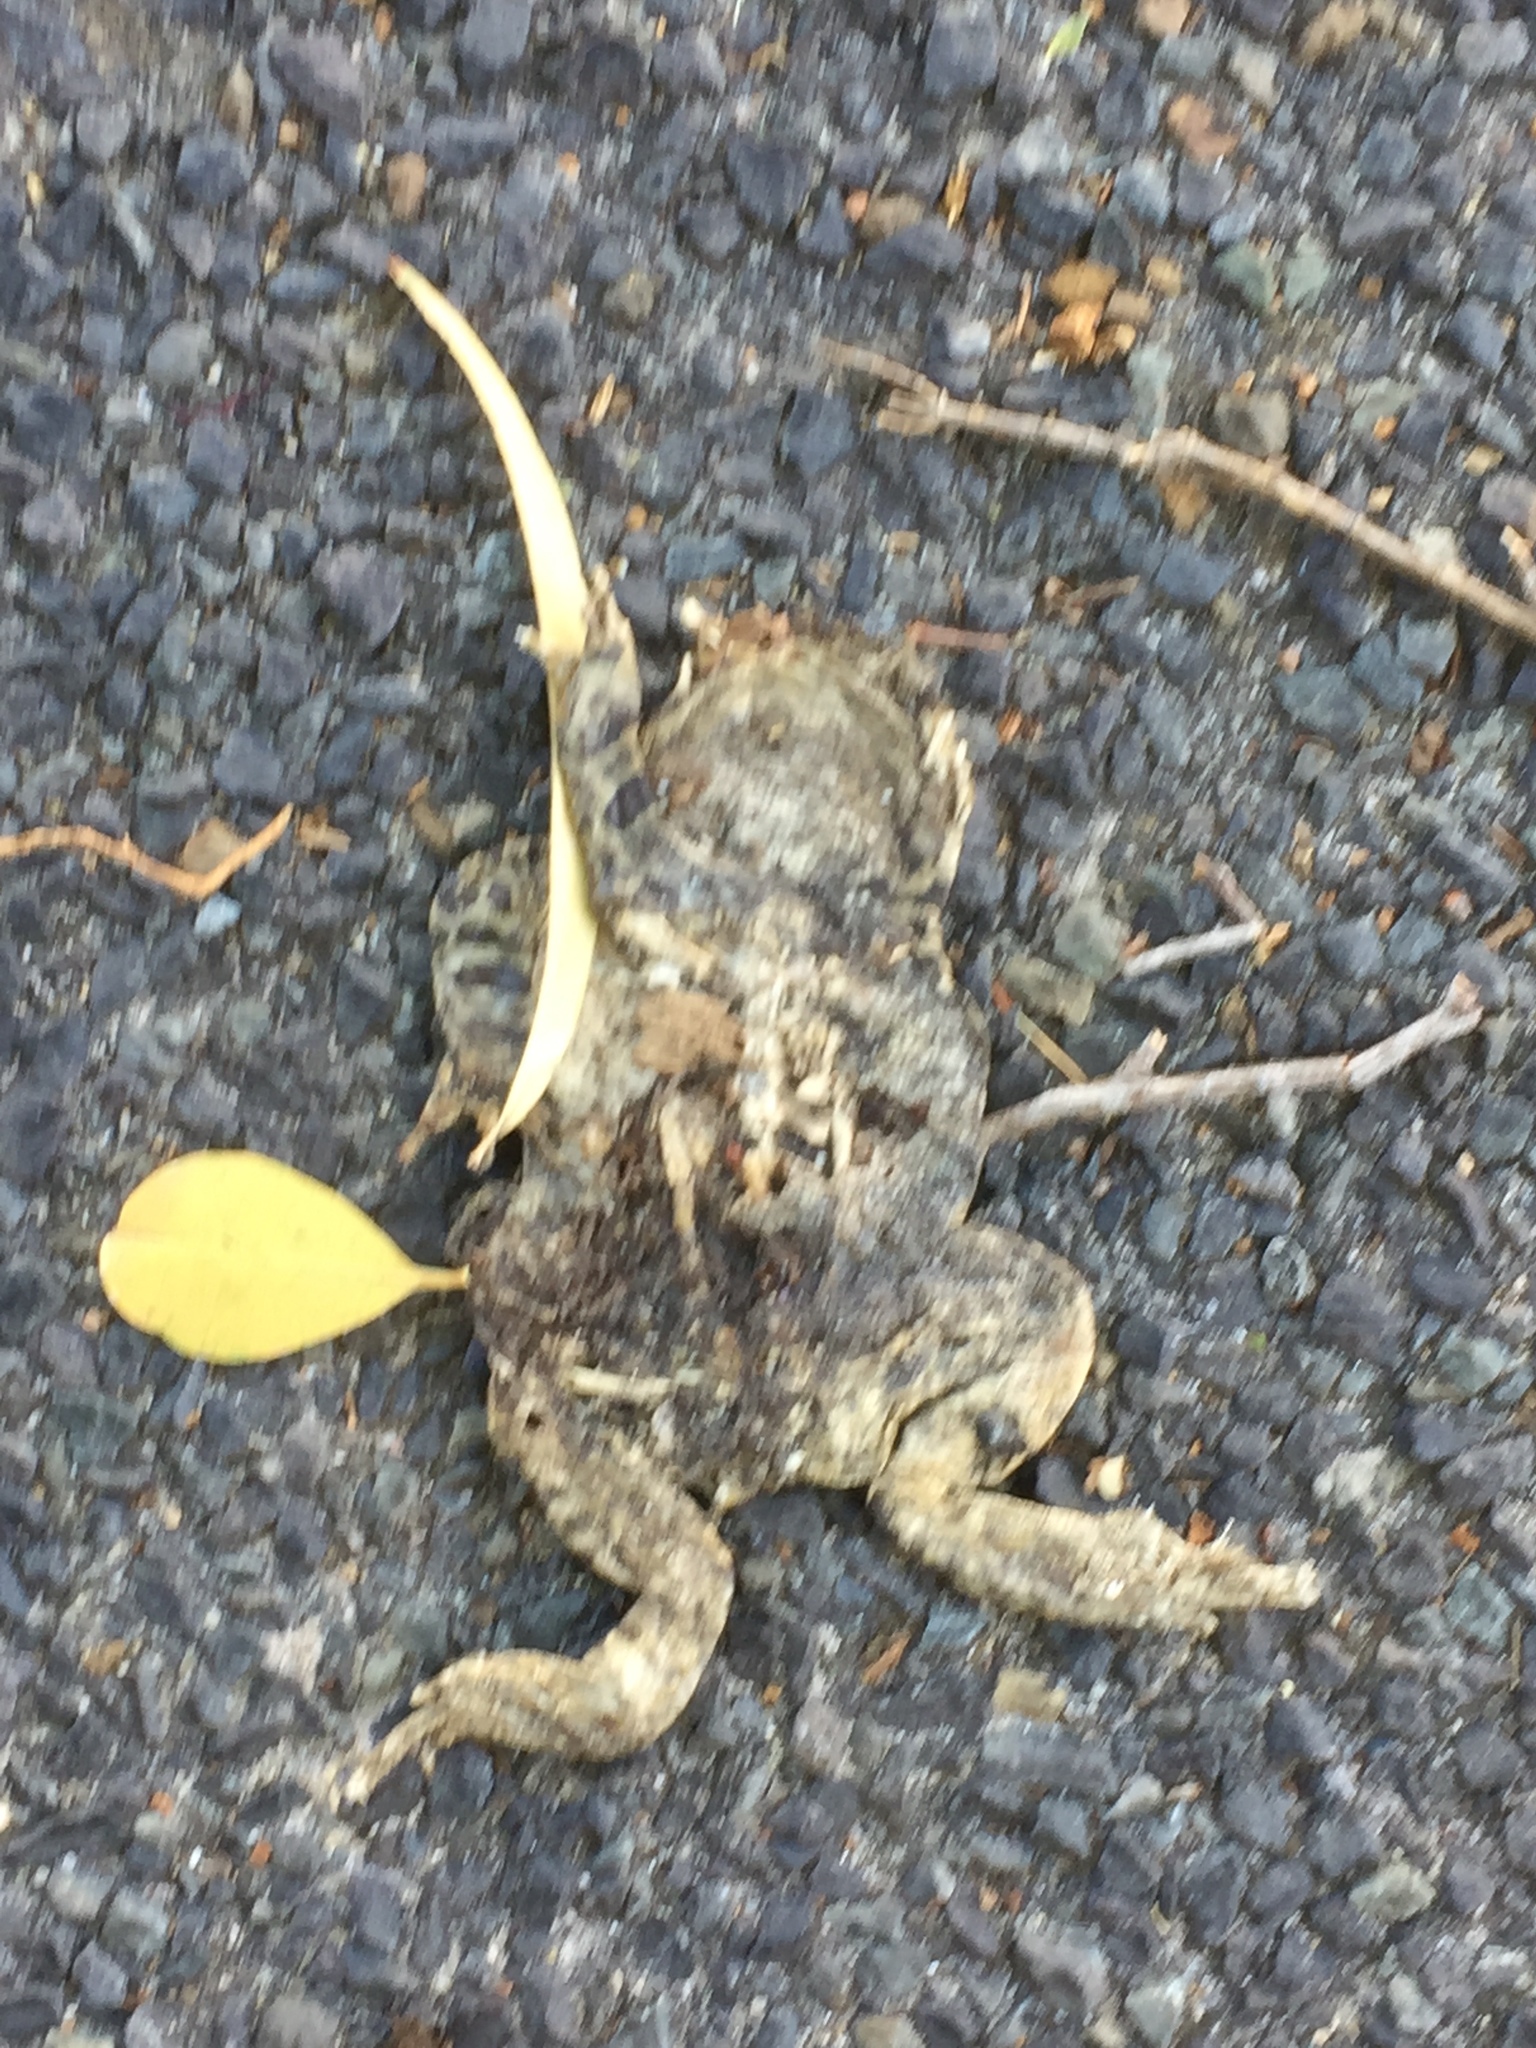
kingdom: Animalia
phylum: Chordata
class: Amphibia
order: Anura
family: Bufonidae
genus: Sclerophrys
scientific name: Sclerophrys pantherina
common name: Panther toad
